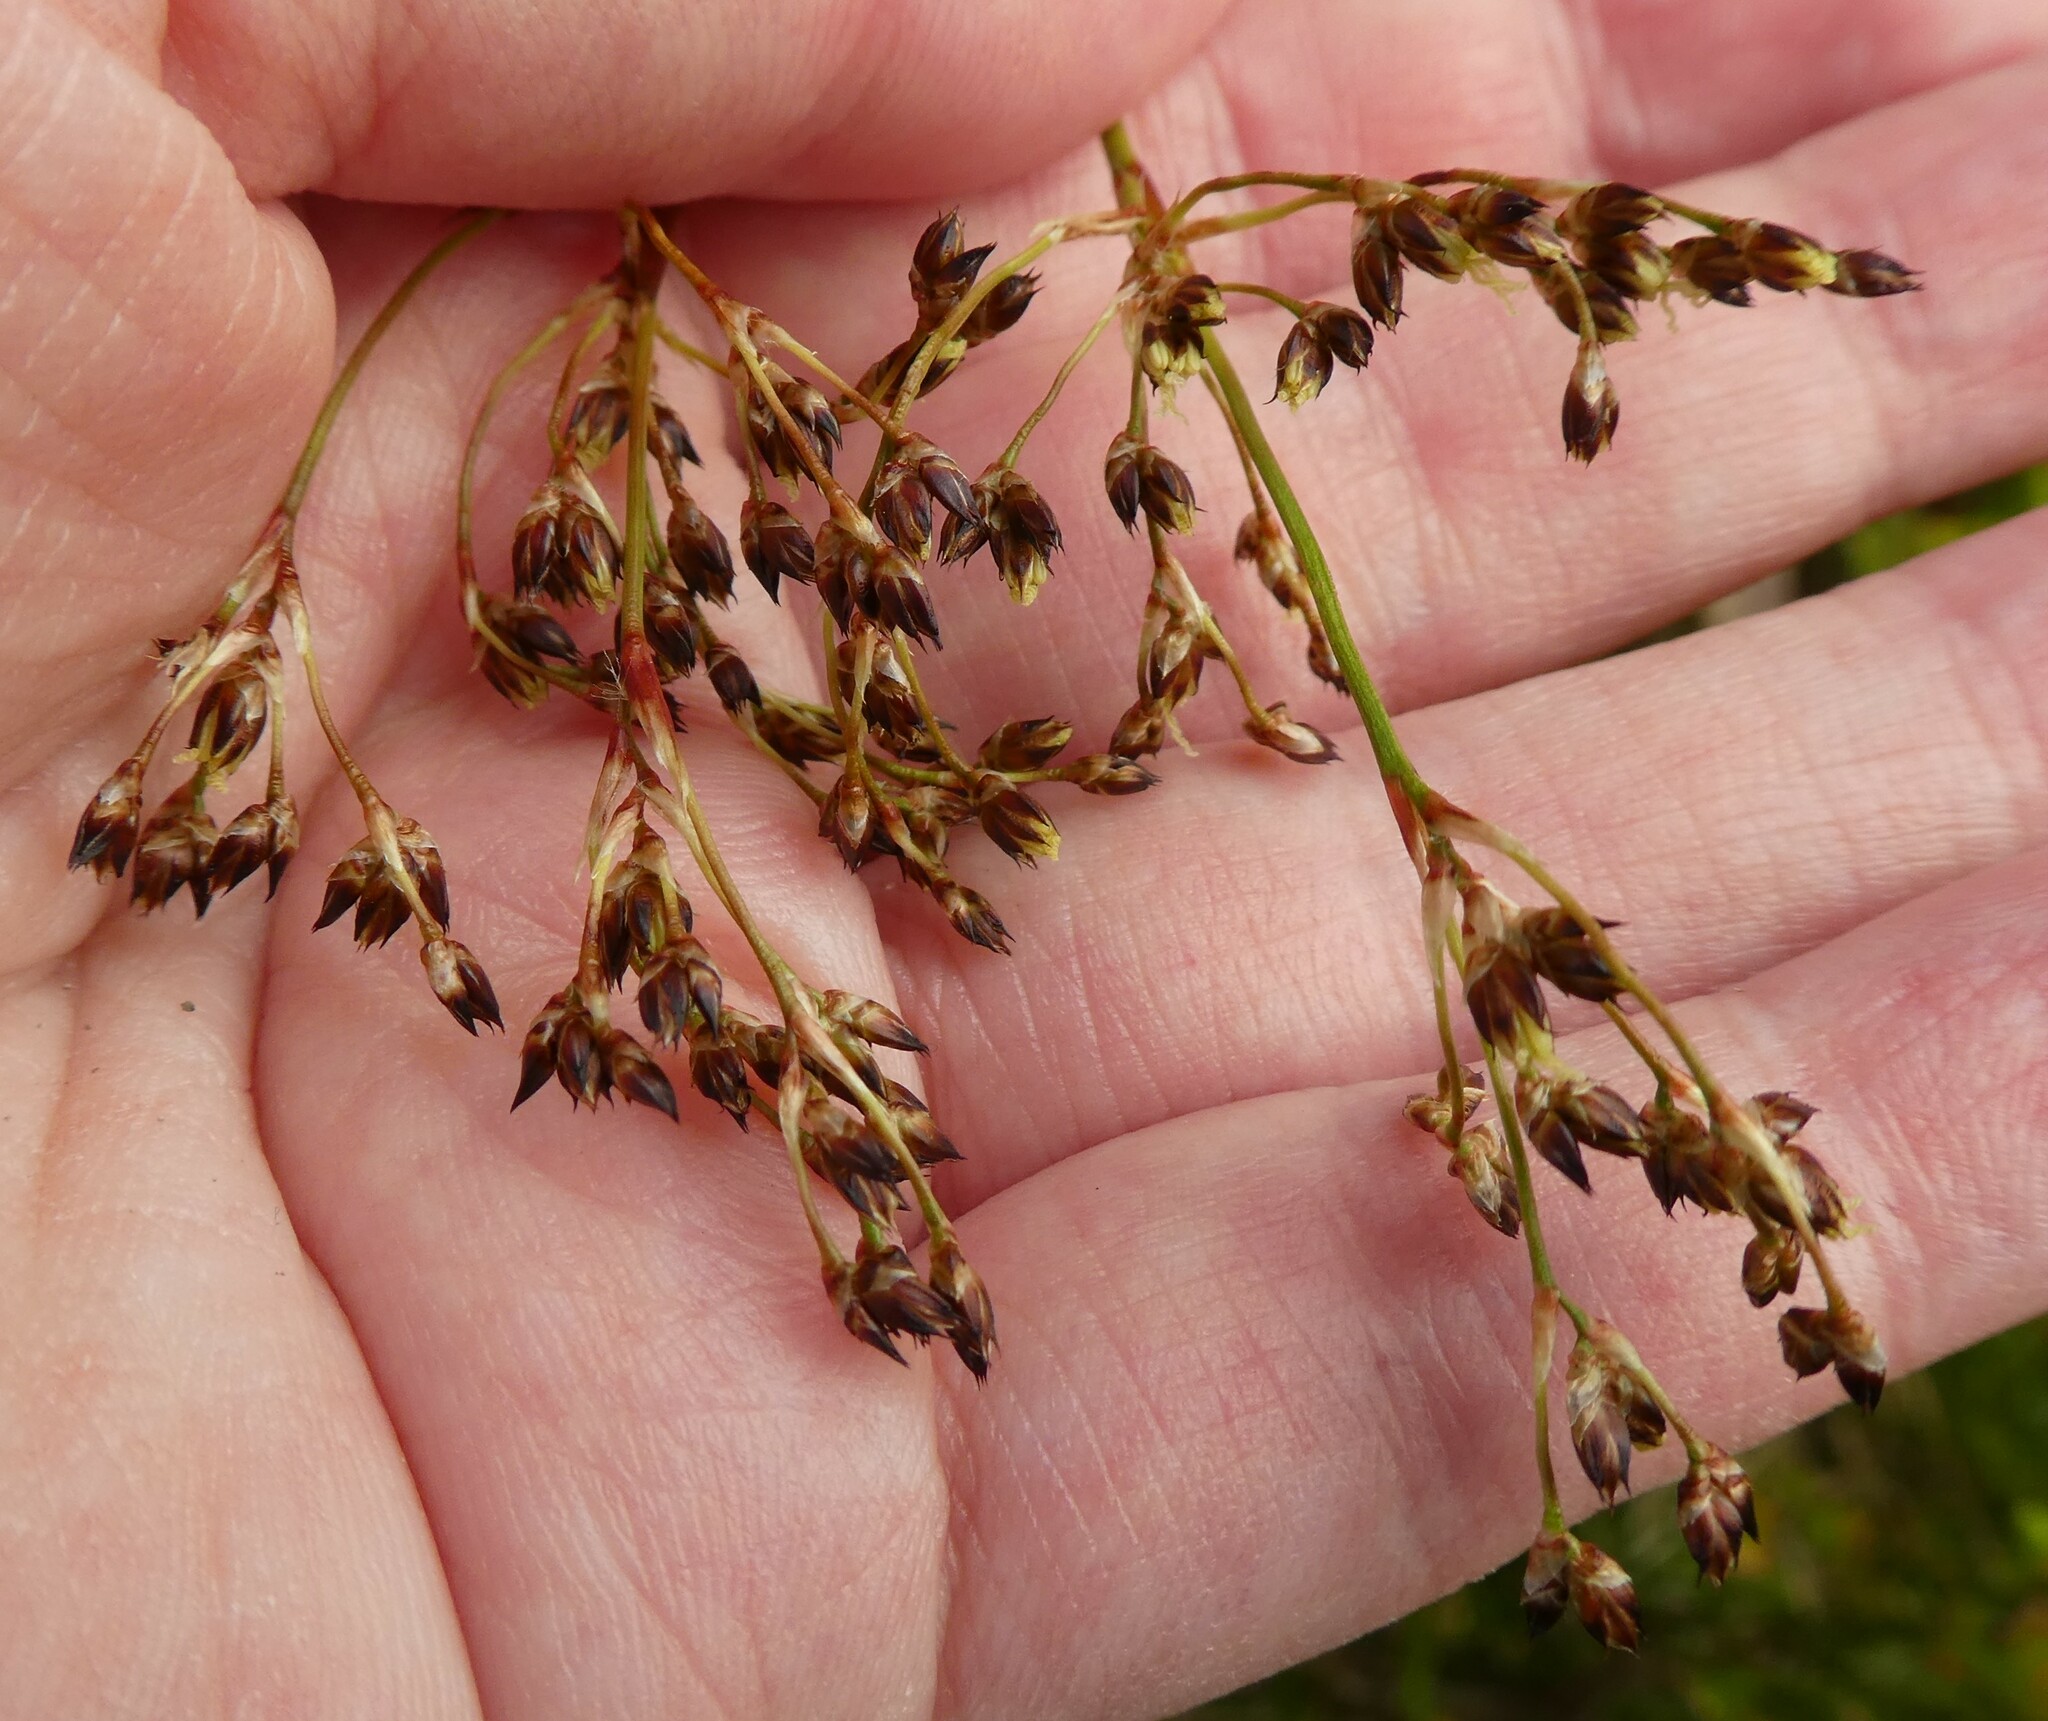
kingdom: Plantae
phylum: Tracheophyta
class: Liliopsida
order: Poales
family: Juncaceae
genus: Luzula
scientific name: Luzula sylvatica
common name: Great wood-rush
